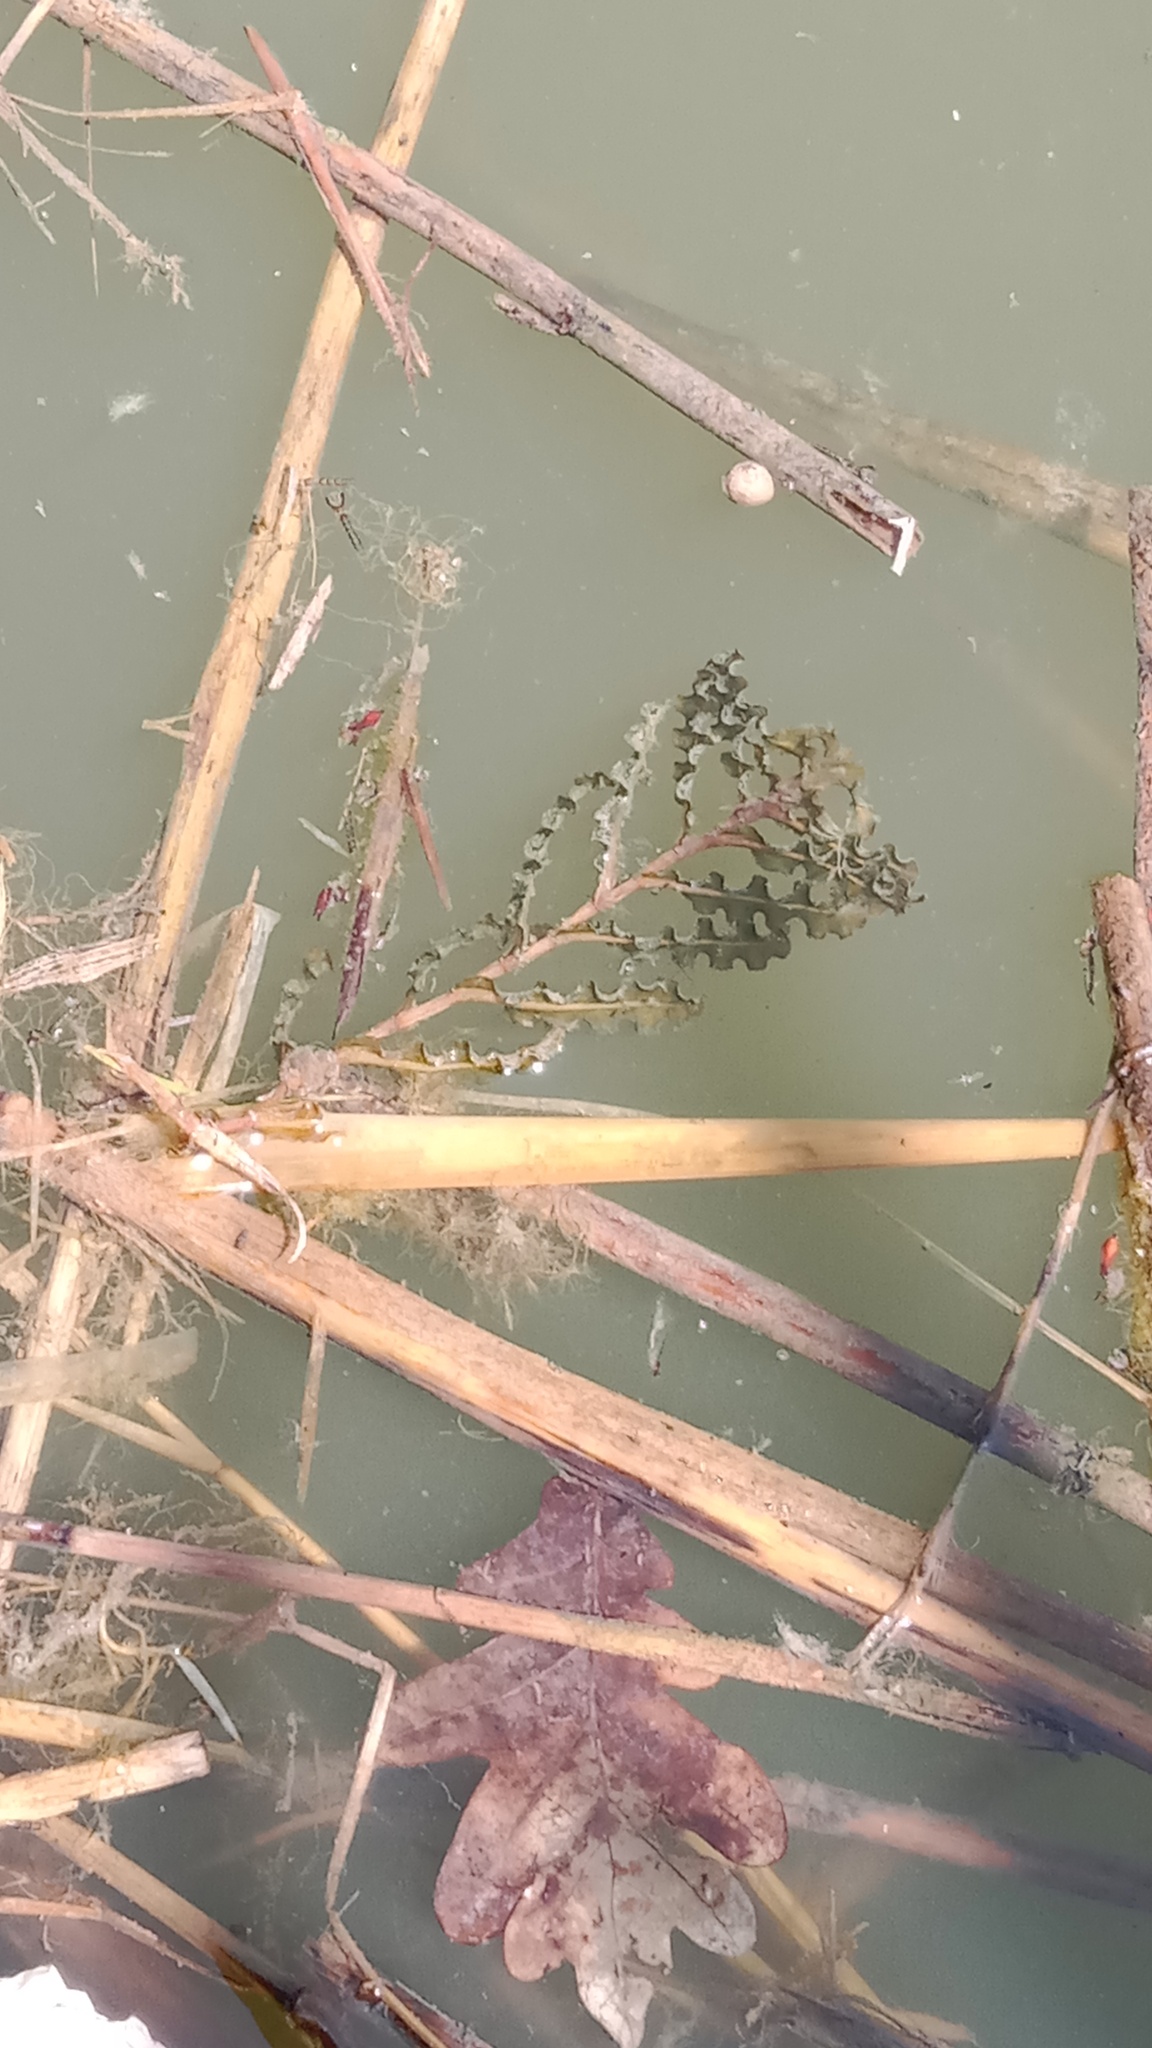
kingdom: Plantae
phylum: Tracheophyta
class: Liliopsida
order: Alismatales
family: Potamogetonaceae
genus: Potamogeton
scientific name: Potamogeton crispus
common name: Curled pondweed
